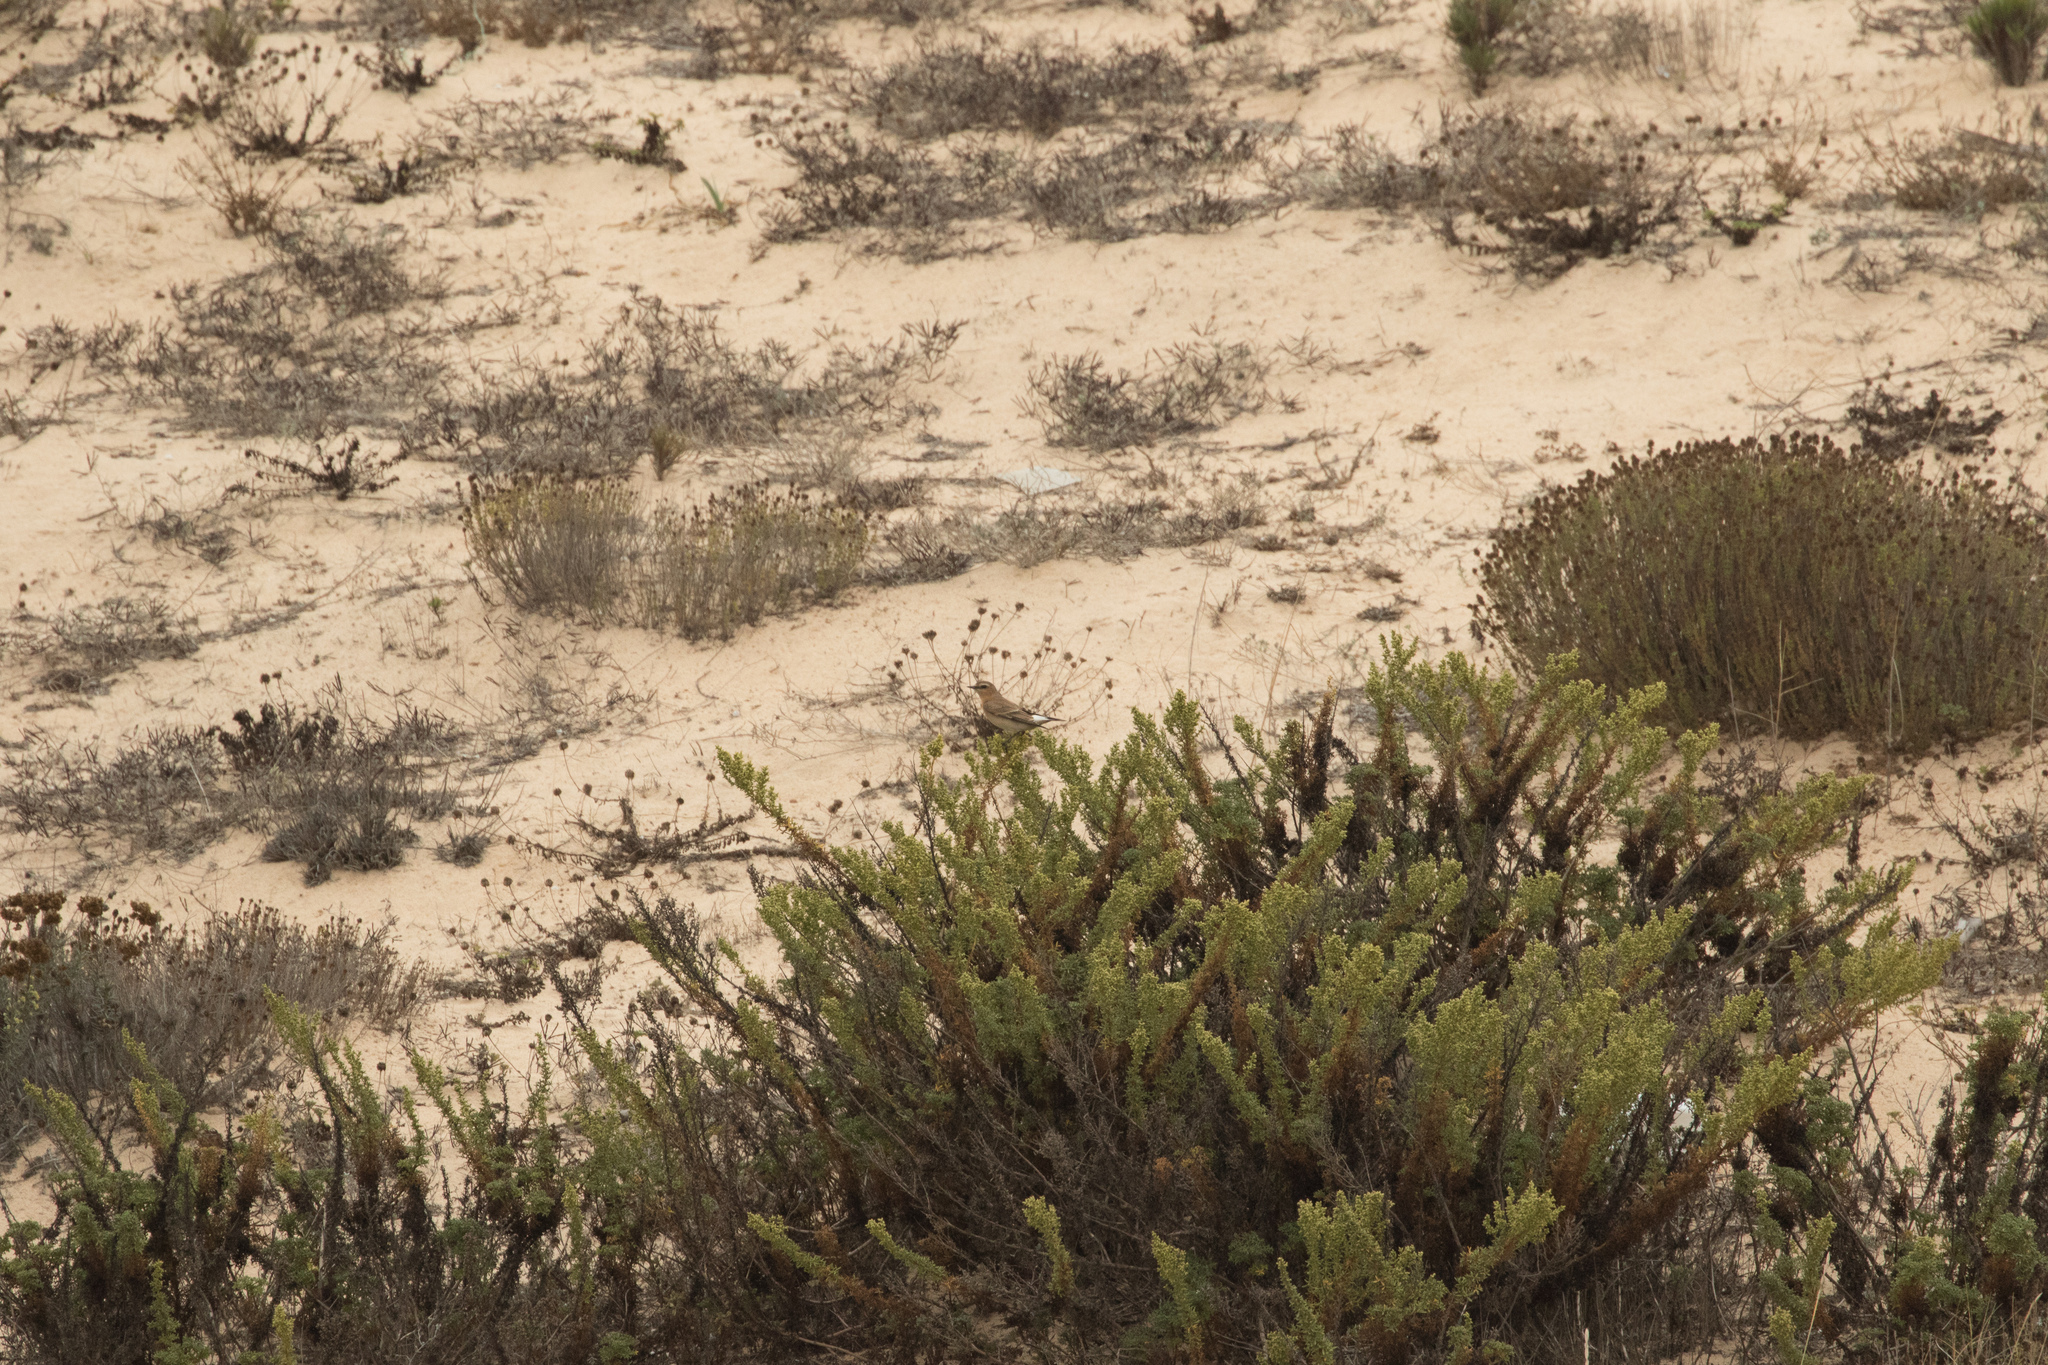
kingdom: Animalia
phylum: Chordata
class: Aves
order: Passeriformes
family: Muscicapidae
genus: Oenanthe
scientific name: Oenanthe oenanthe
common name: Northern wheatear
